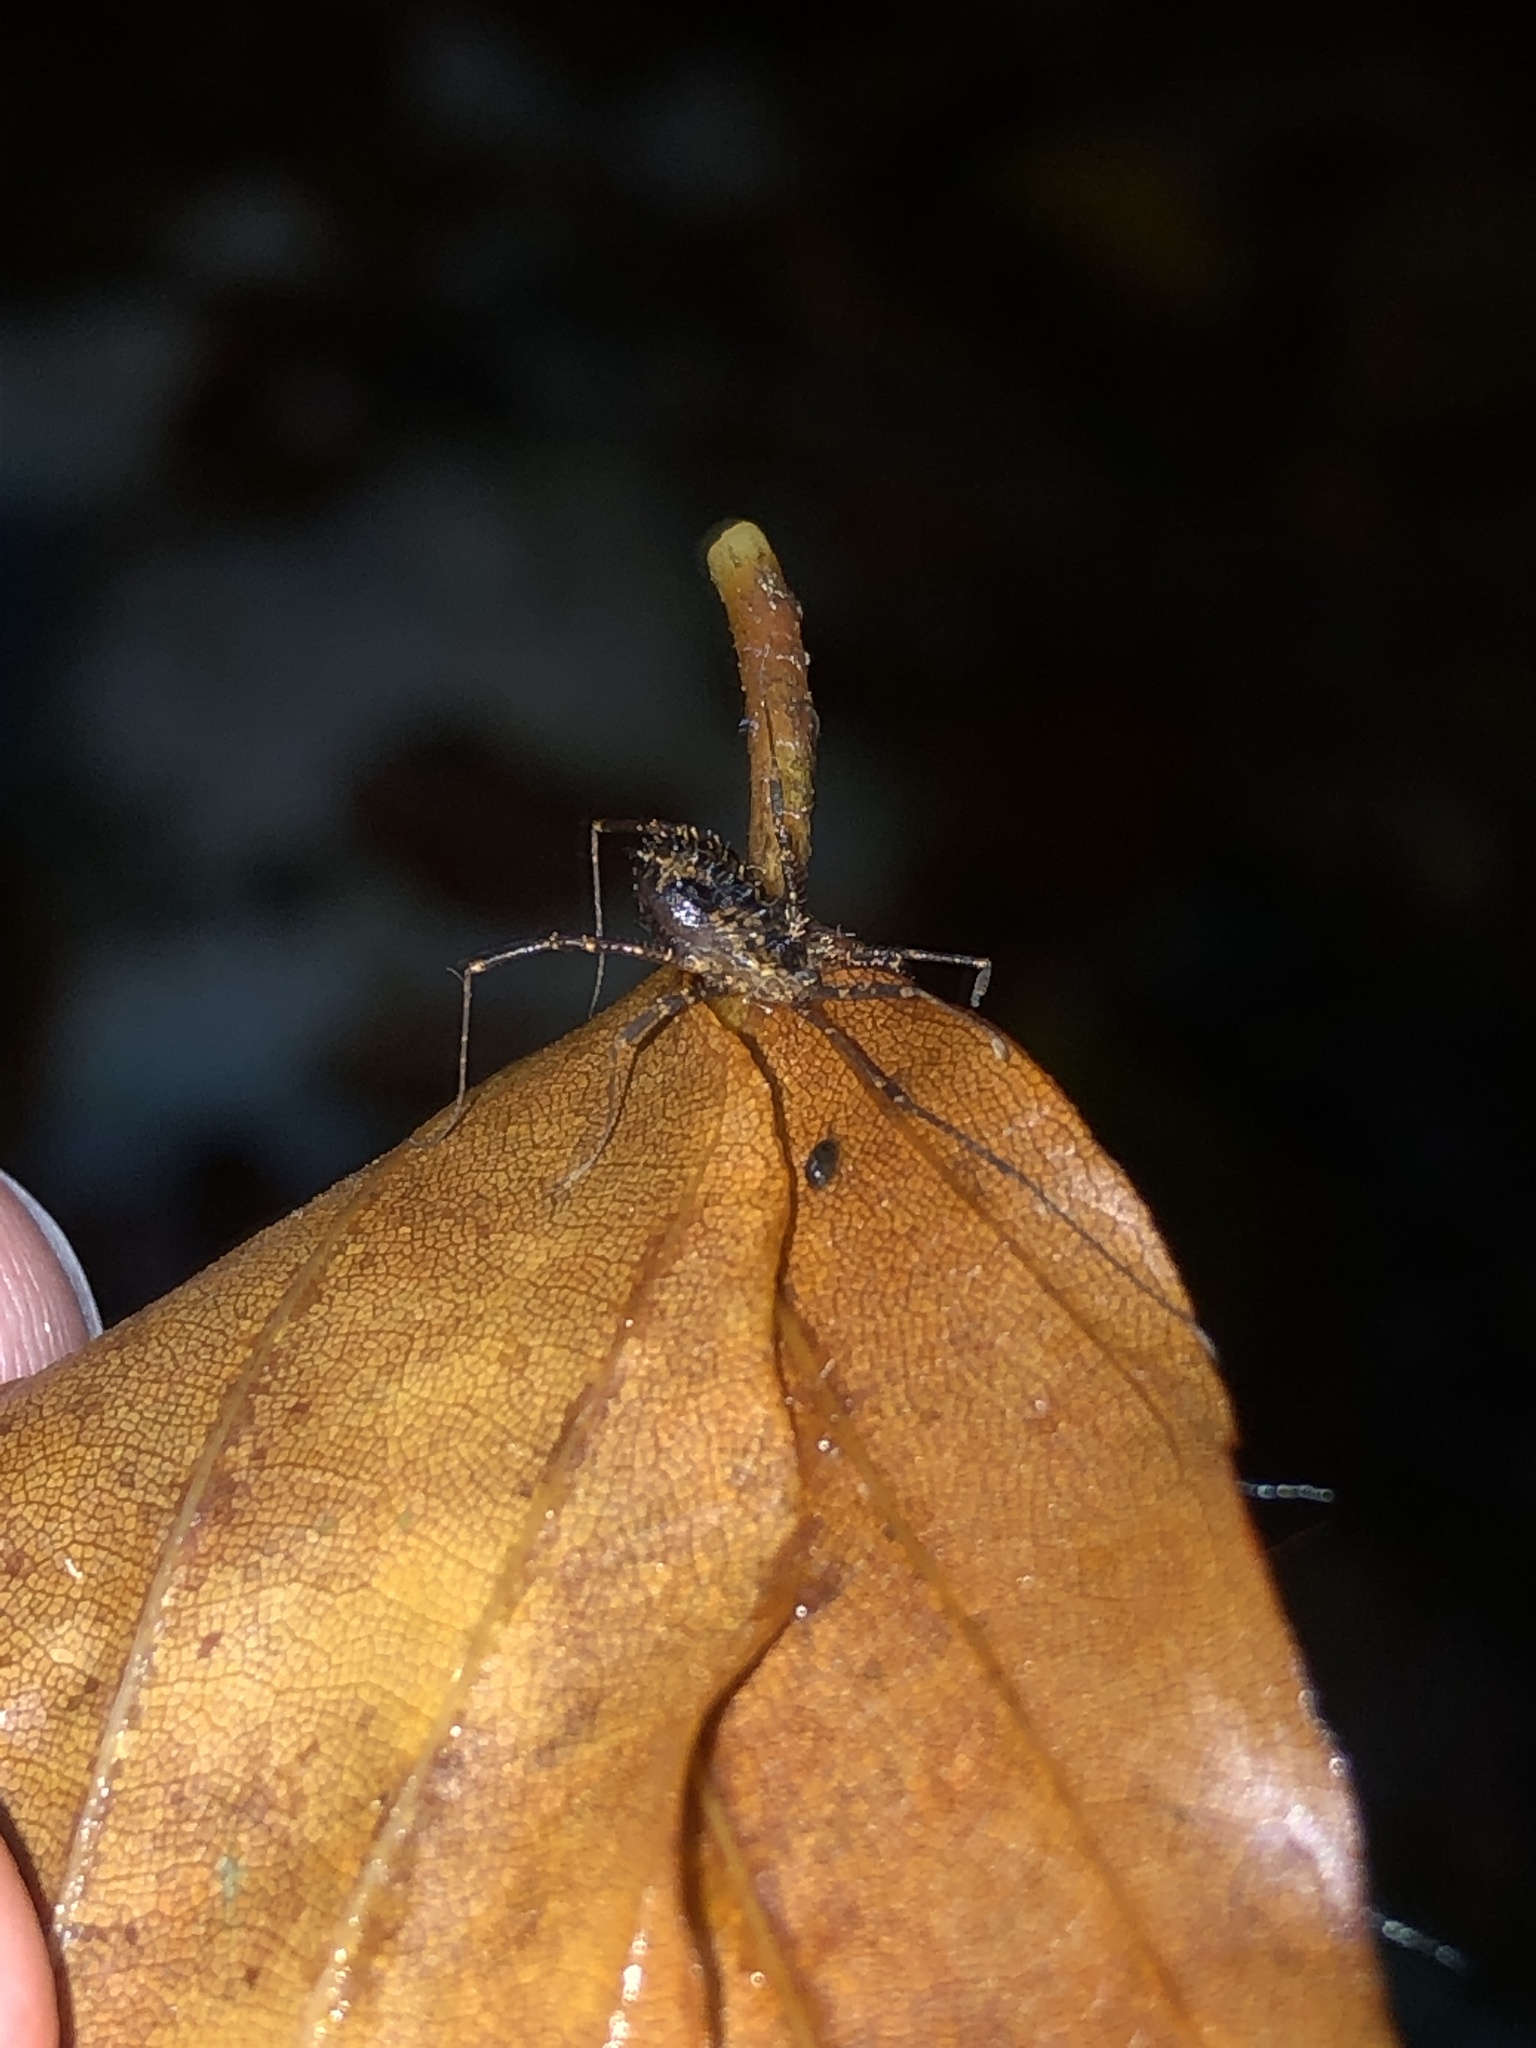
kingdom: Animalia
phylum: Arthropoda
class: Arachnida
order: Opiliones
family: Sclerosomatidae
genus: Astrobunus
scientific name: Astrobunus helleri
